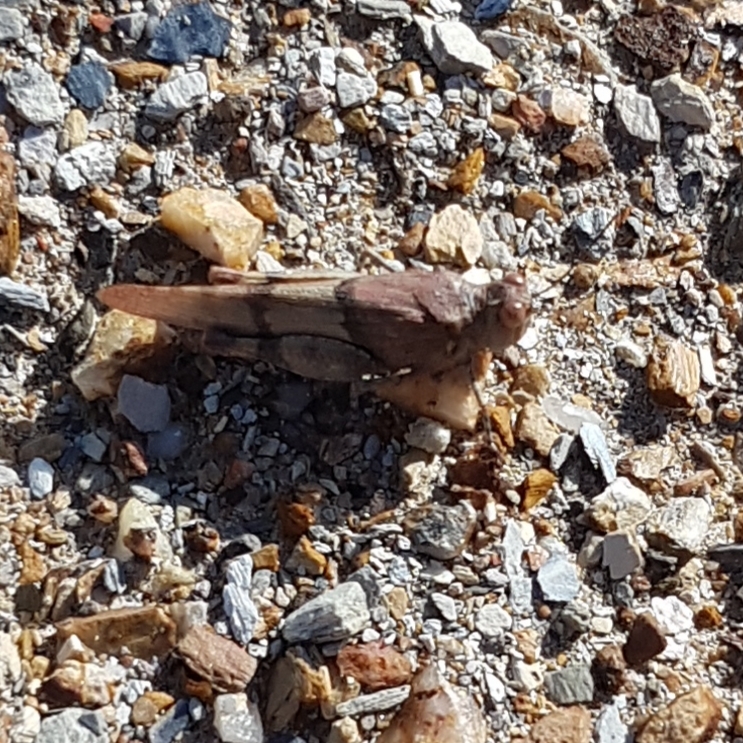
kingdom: Animalia
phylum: Arthropoda
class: Insecta
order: Orthoptera
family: Acrididae
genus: Sphingonotus
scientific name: Sphingonotus lluciapomaresi
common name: Iberian sand grasshopper
